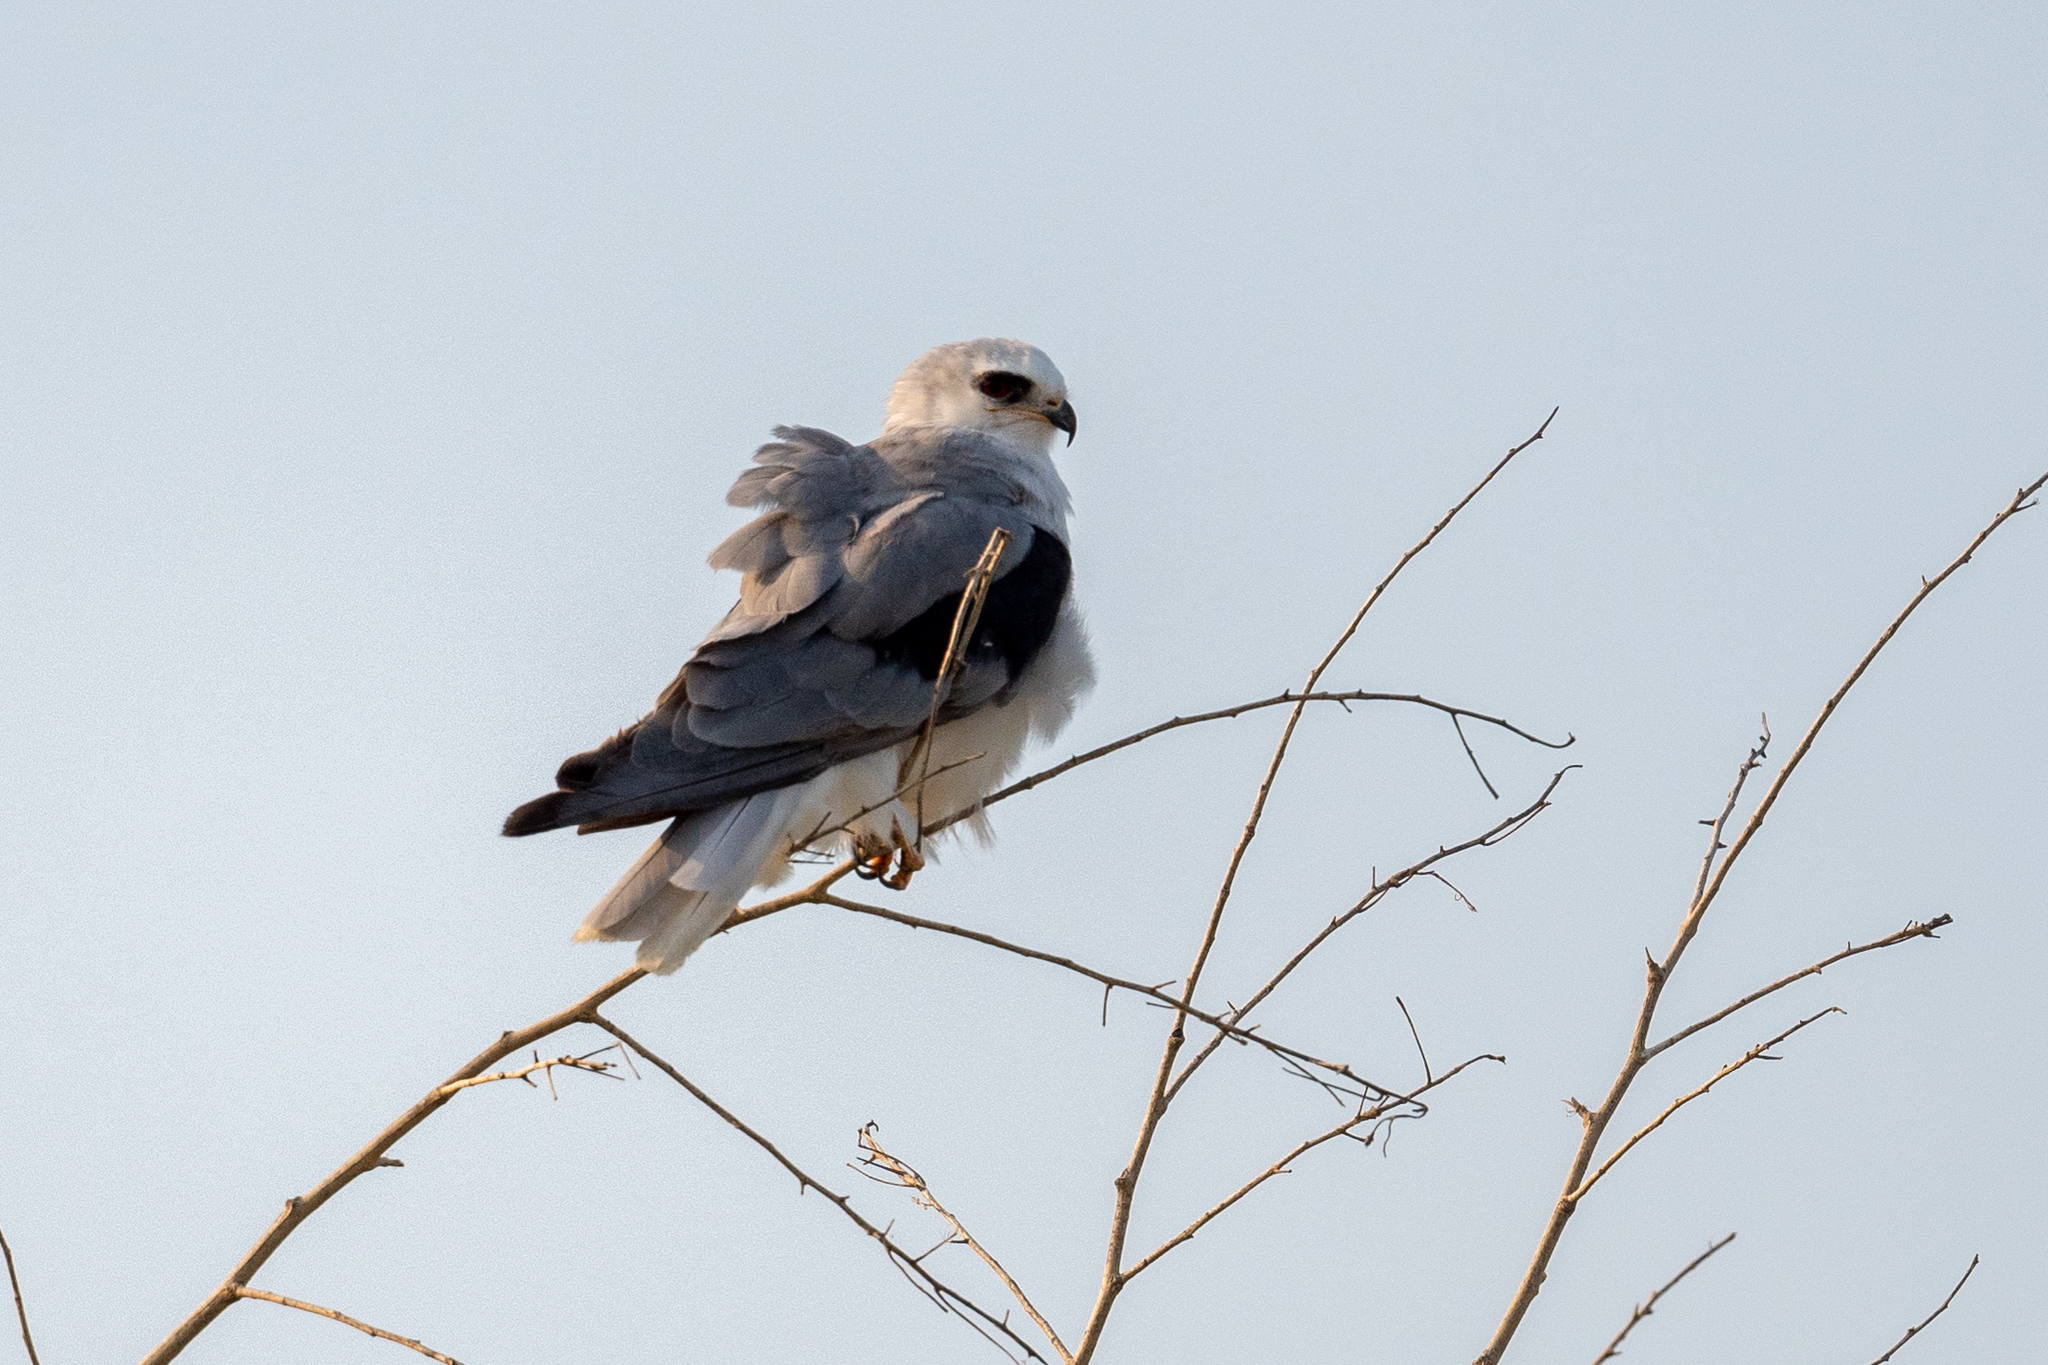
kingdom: Animalia
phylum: Chordata
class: Aves
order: Accipitriformes
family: Accipitridae
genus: Elanus
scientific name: Elanus leucurus
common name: White-tailed kite
